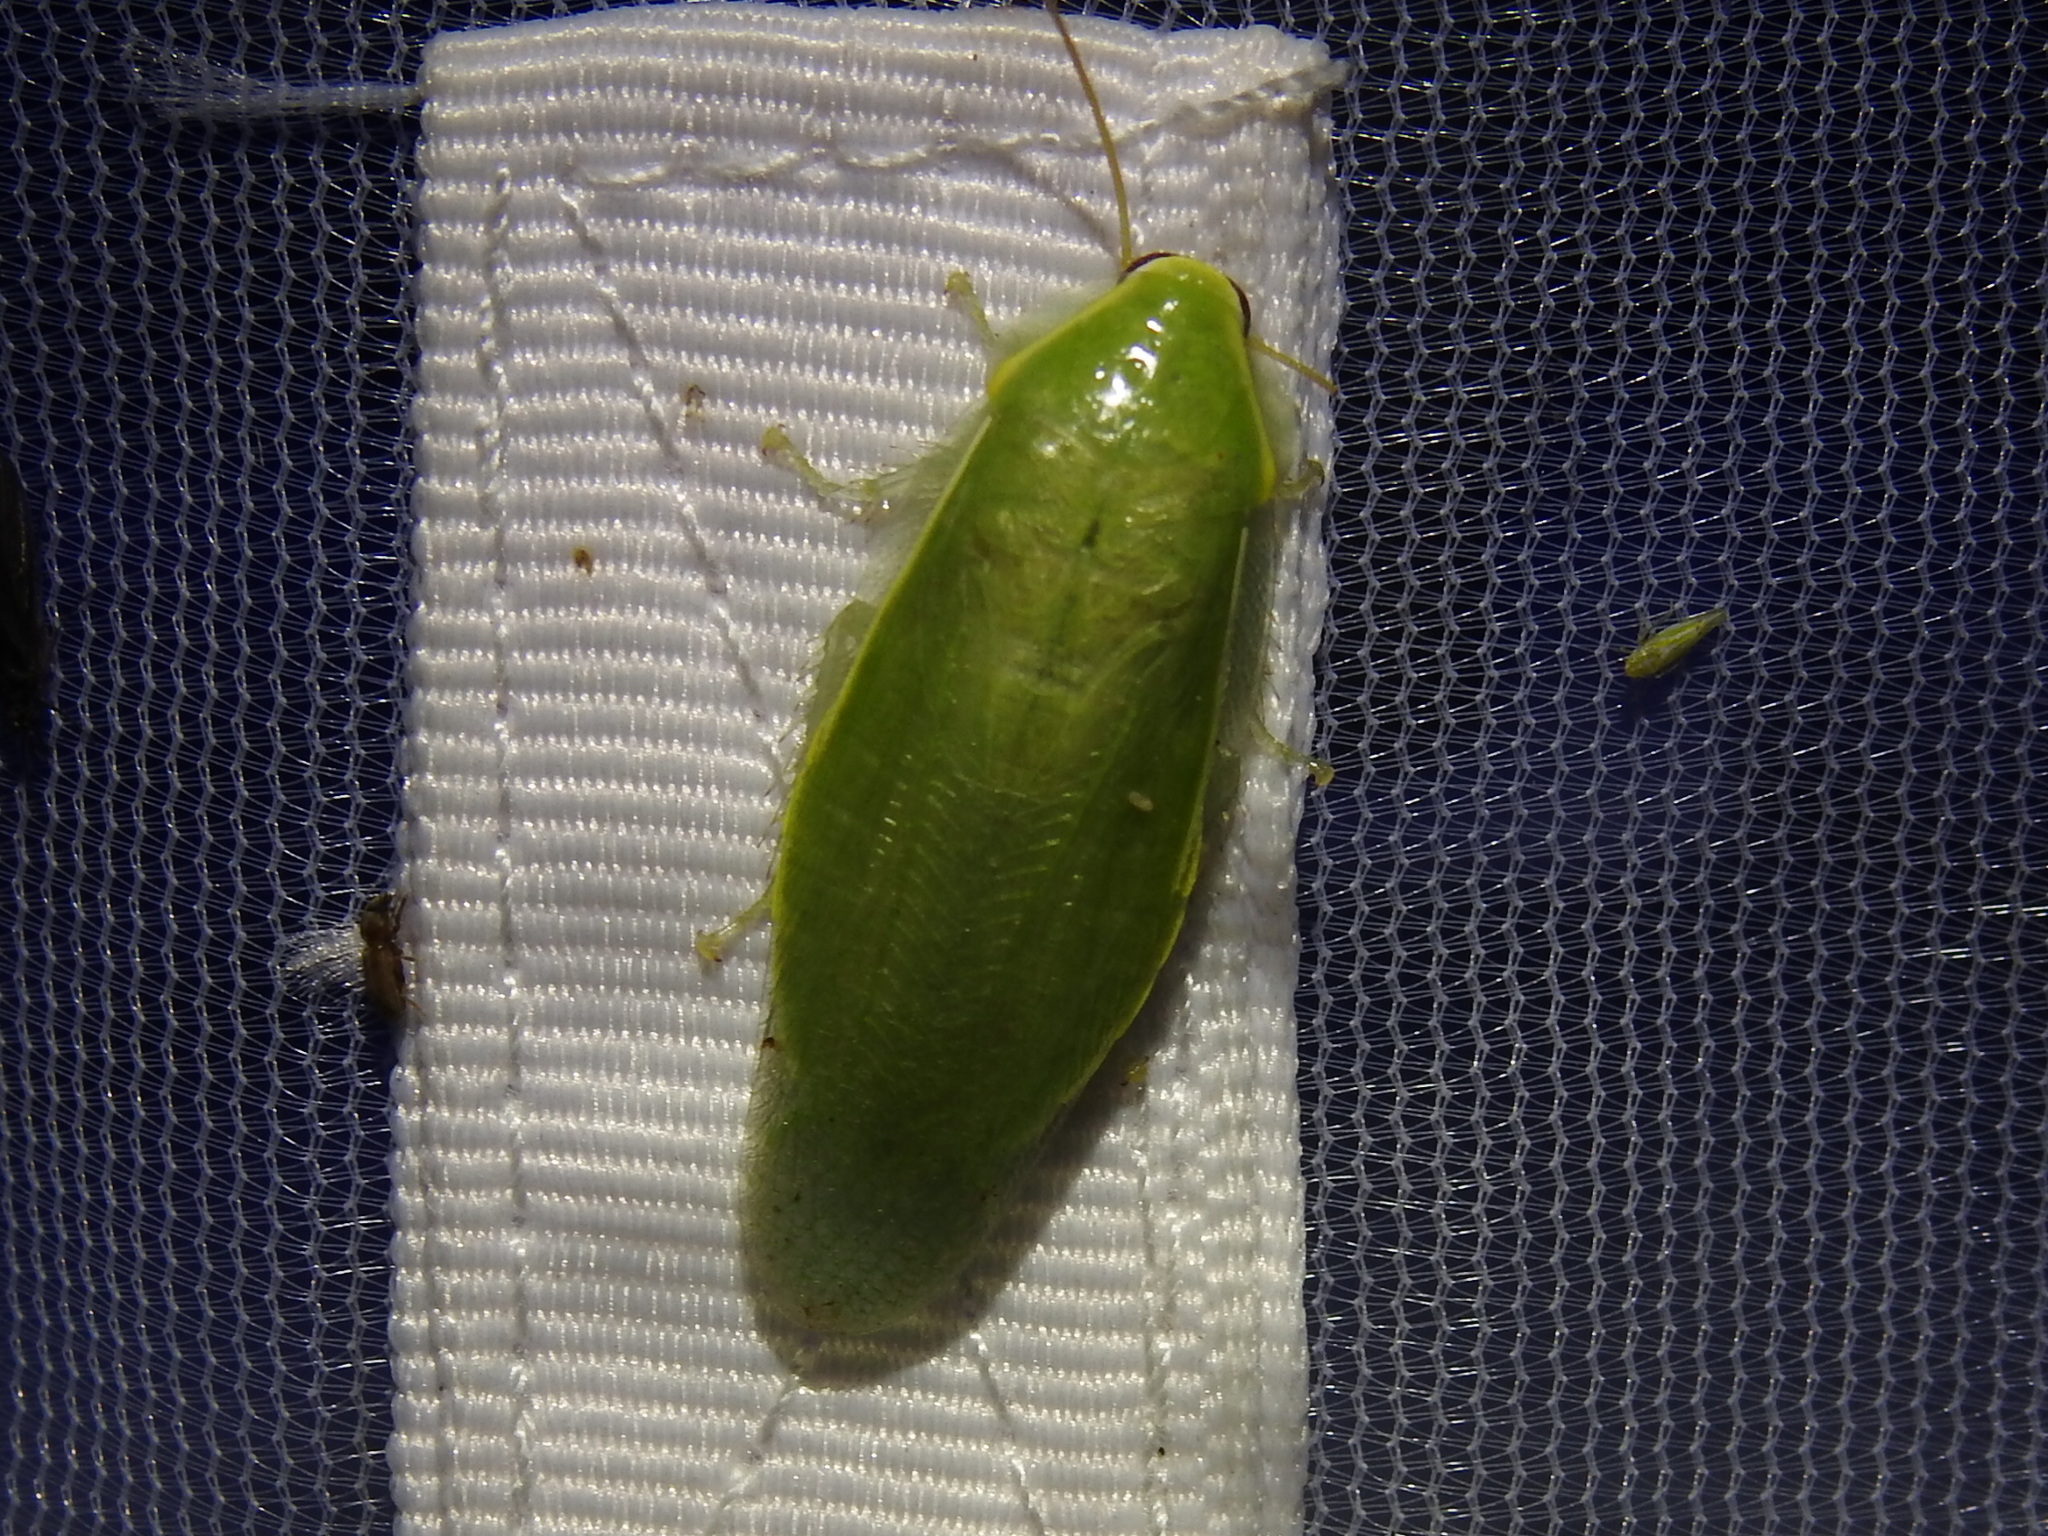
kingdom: Animalia
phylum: Arthropoda
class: Insecta
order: Blattodea
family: Blaberidae
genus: Panchlora
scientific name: Panchlora nivea
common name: Cuban cockroach
